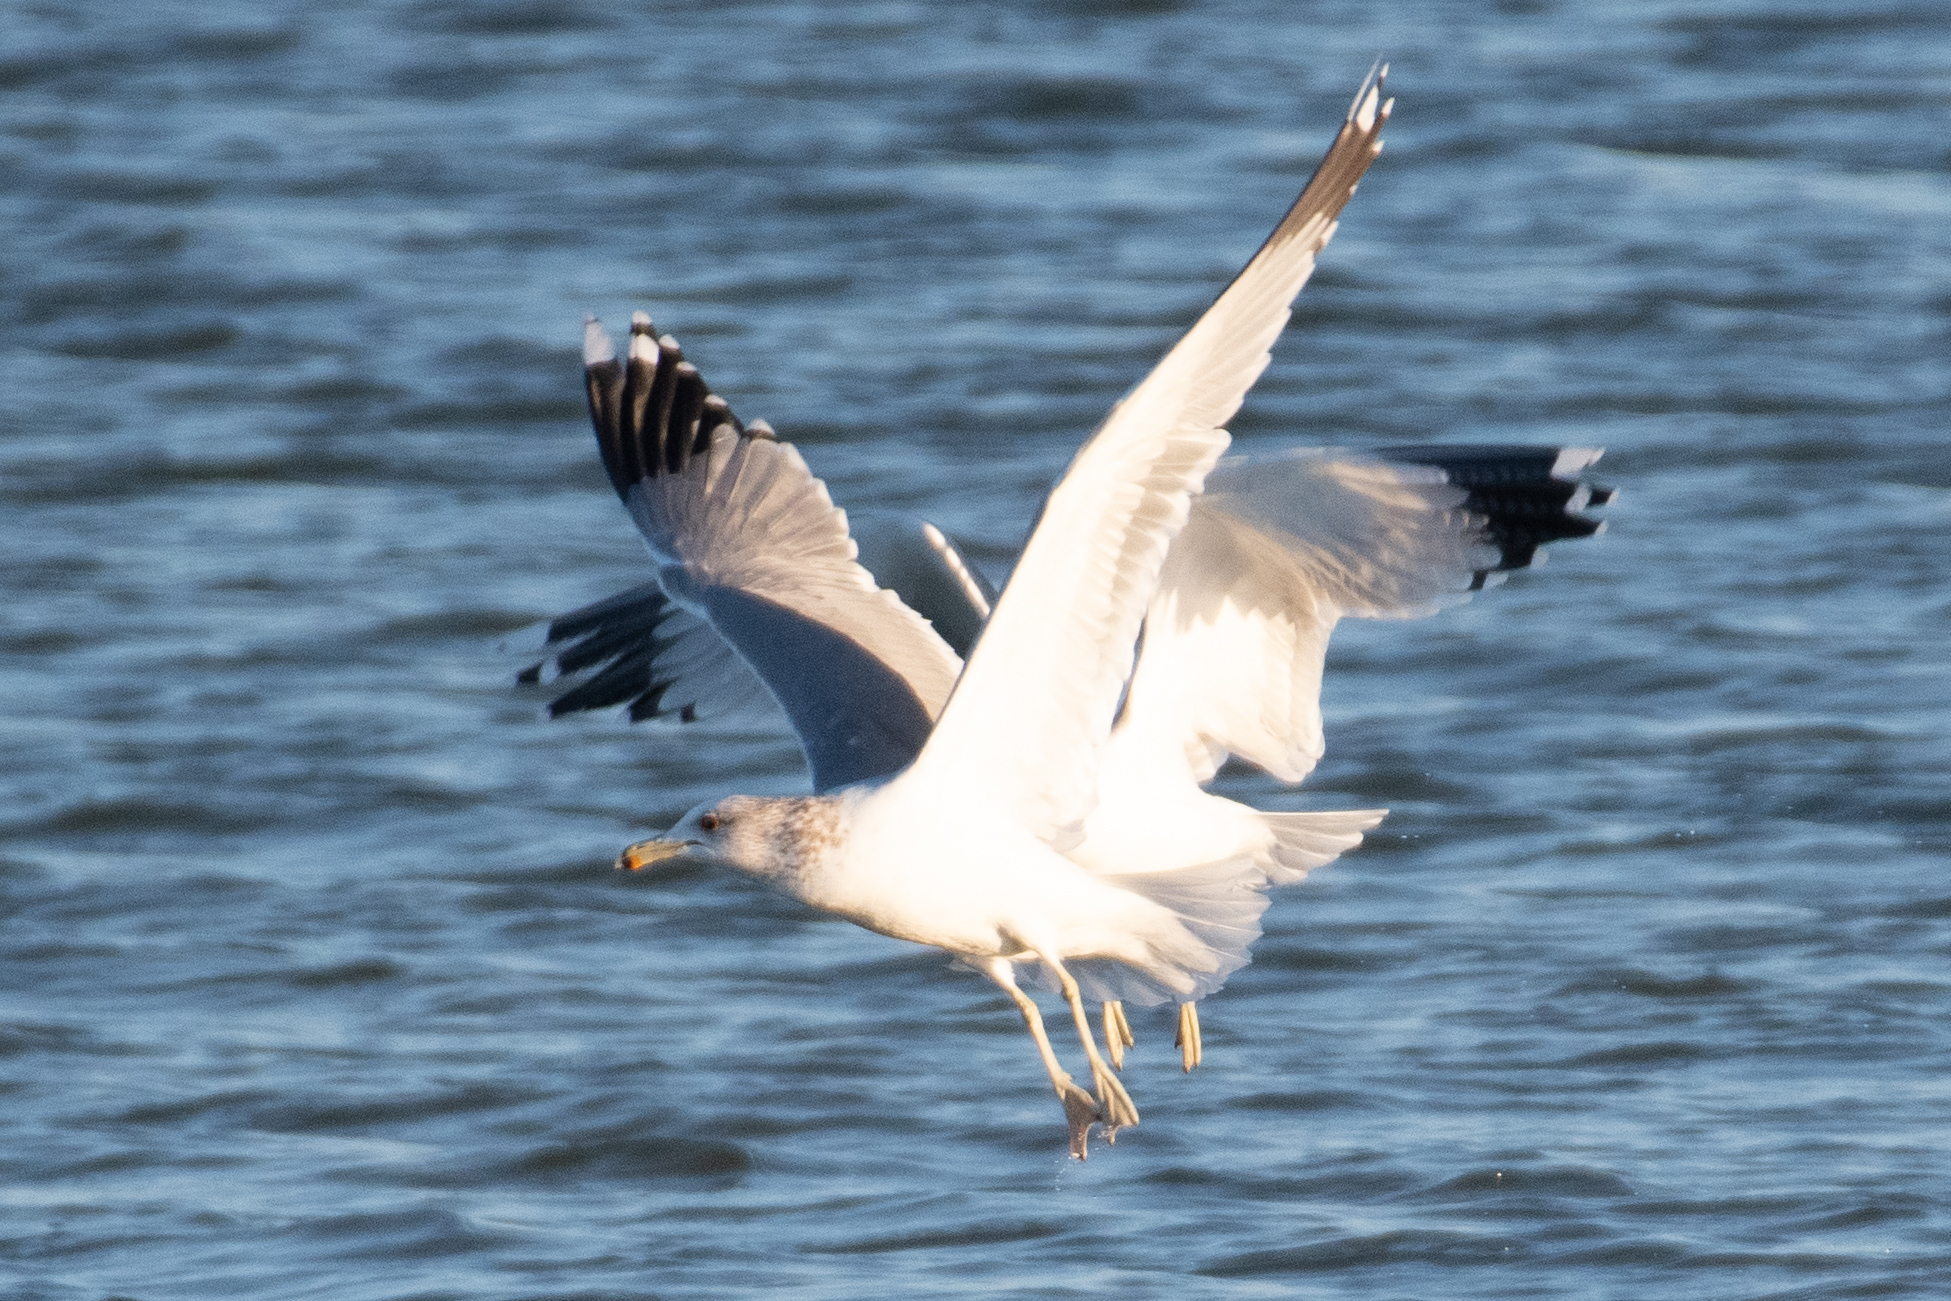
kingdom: Animalia
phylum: Chordata
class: Aves
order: Charadriiformes
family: Laridae
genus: Larus
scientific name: Larus californicus
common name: California gull
